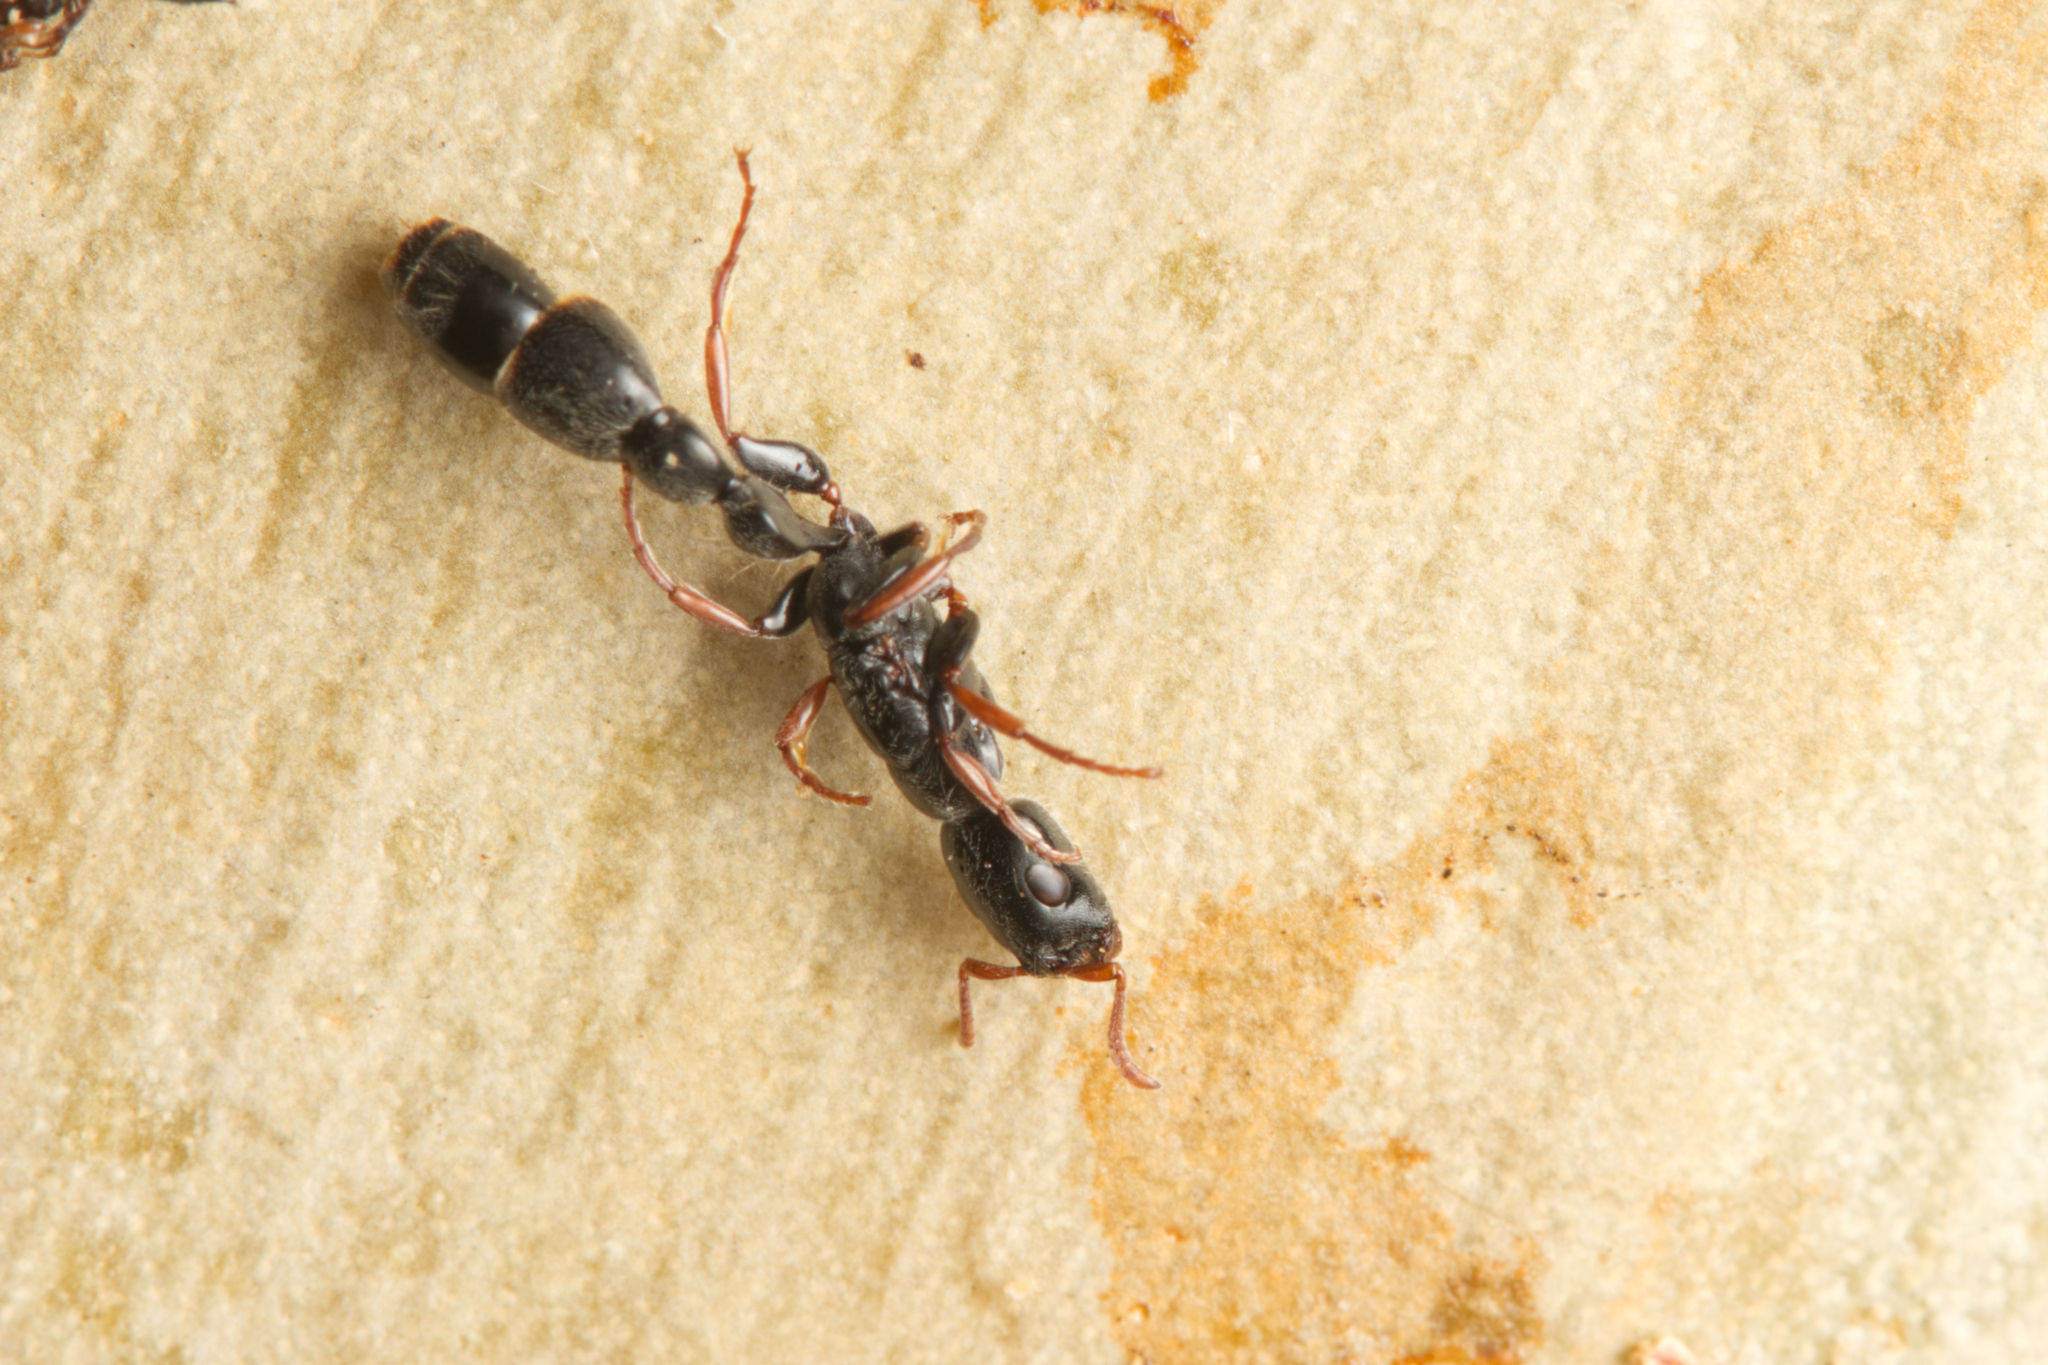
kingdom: Animalia
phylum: Arthropoda
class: Insecta
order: Hymenoptera
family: Formicidae
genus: Tetraponera
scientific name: Tetraponera punctulata
